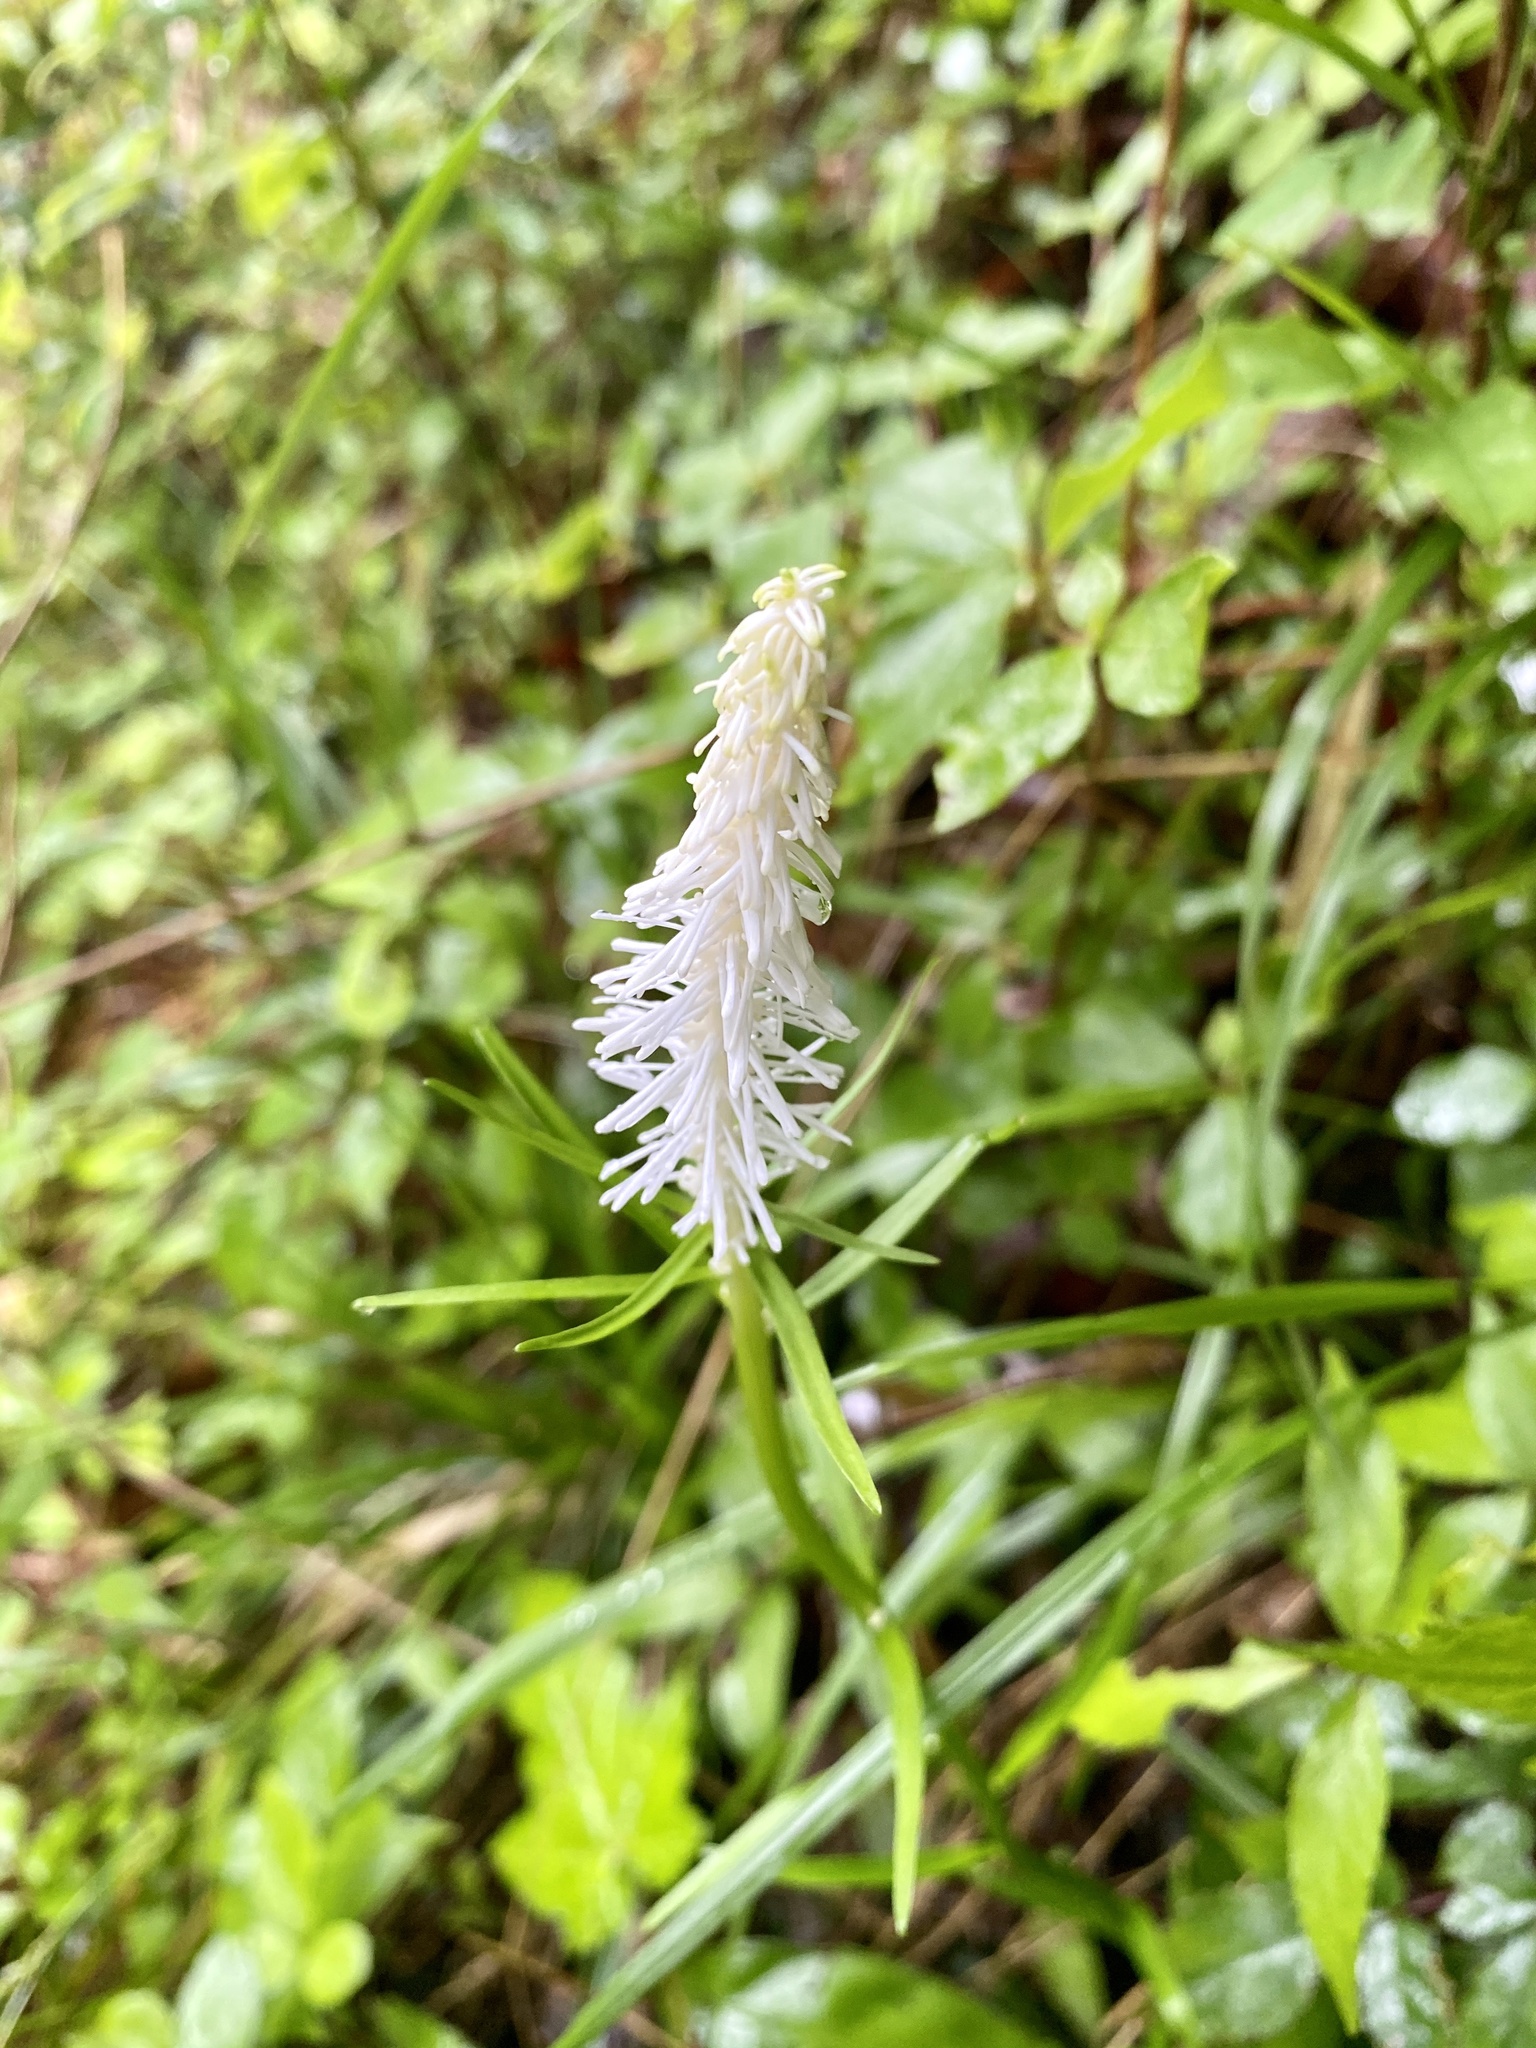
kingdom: Plantae
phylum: Tracheophyta
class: Liliopsida
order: Liliales
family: Melanthiaceae
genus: Chamaelirium
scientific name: Chamaelirium japonicum
